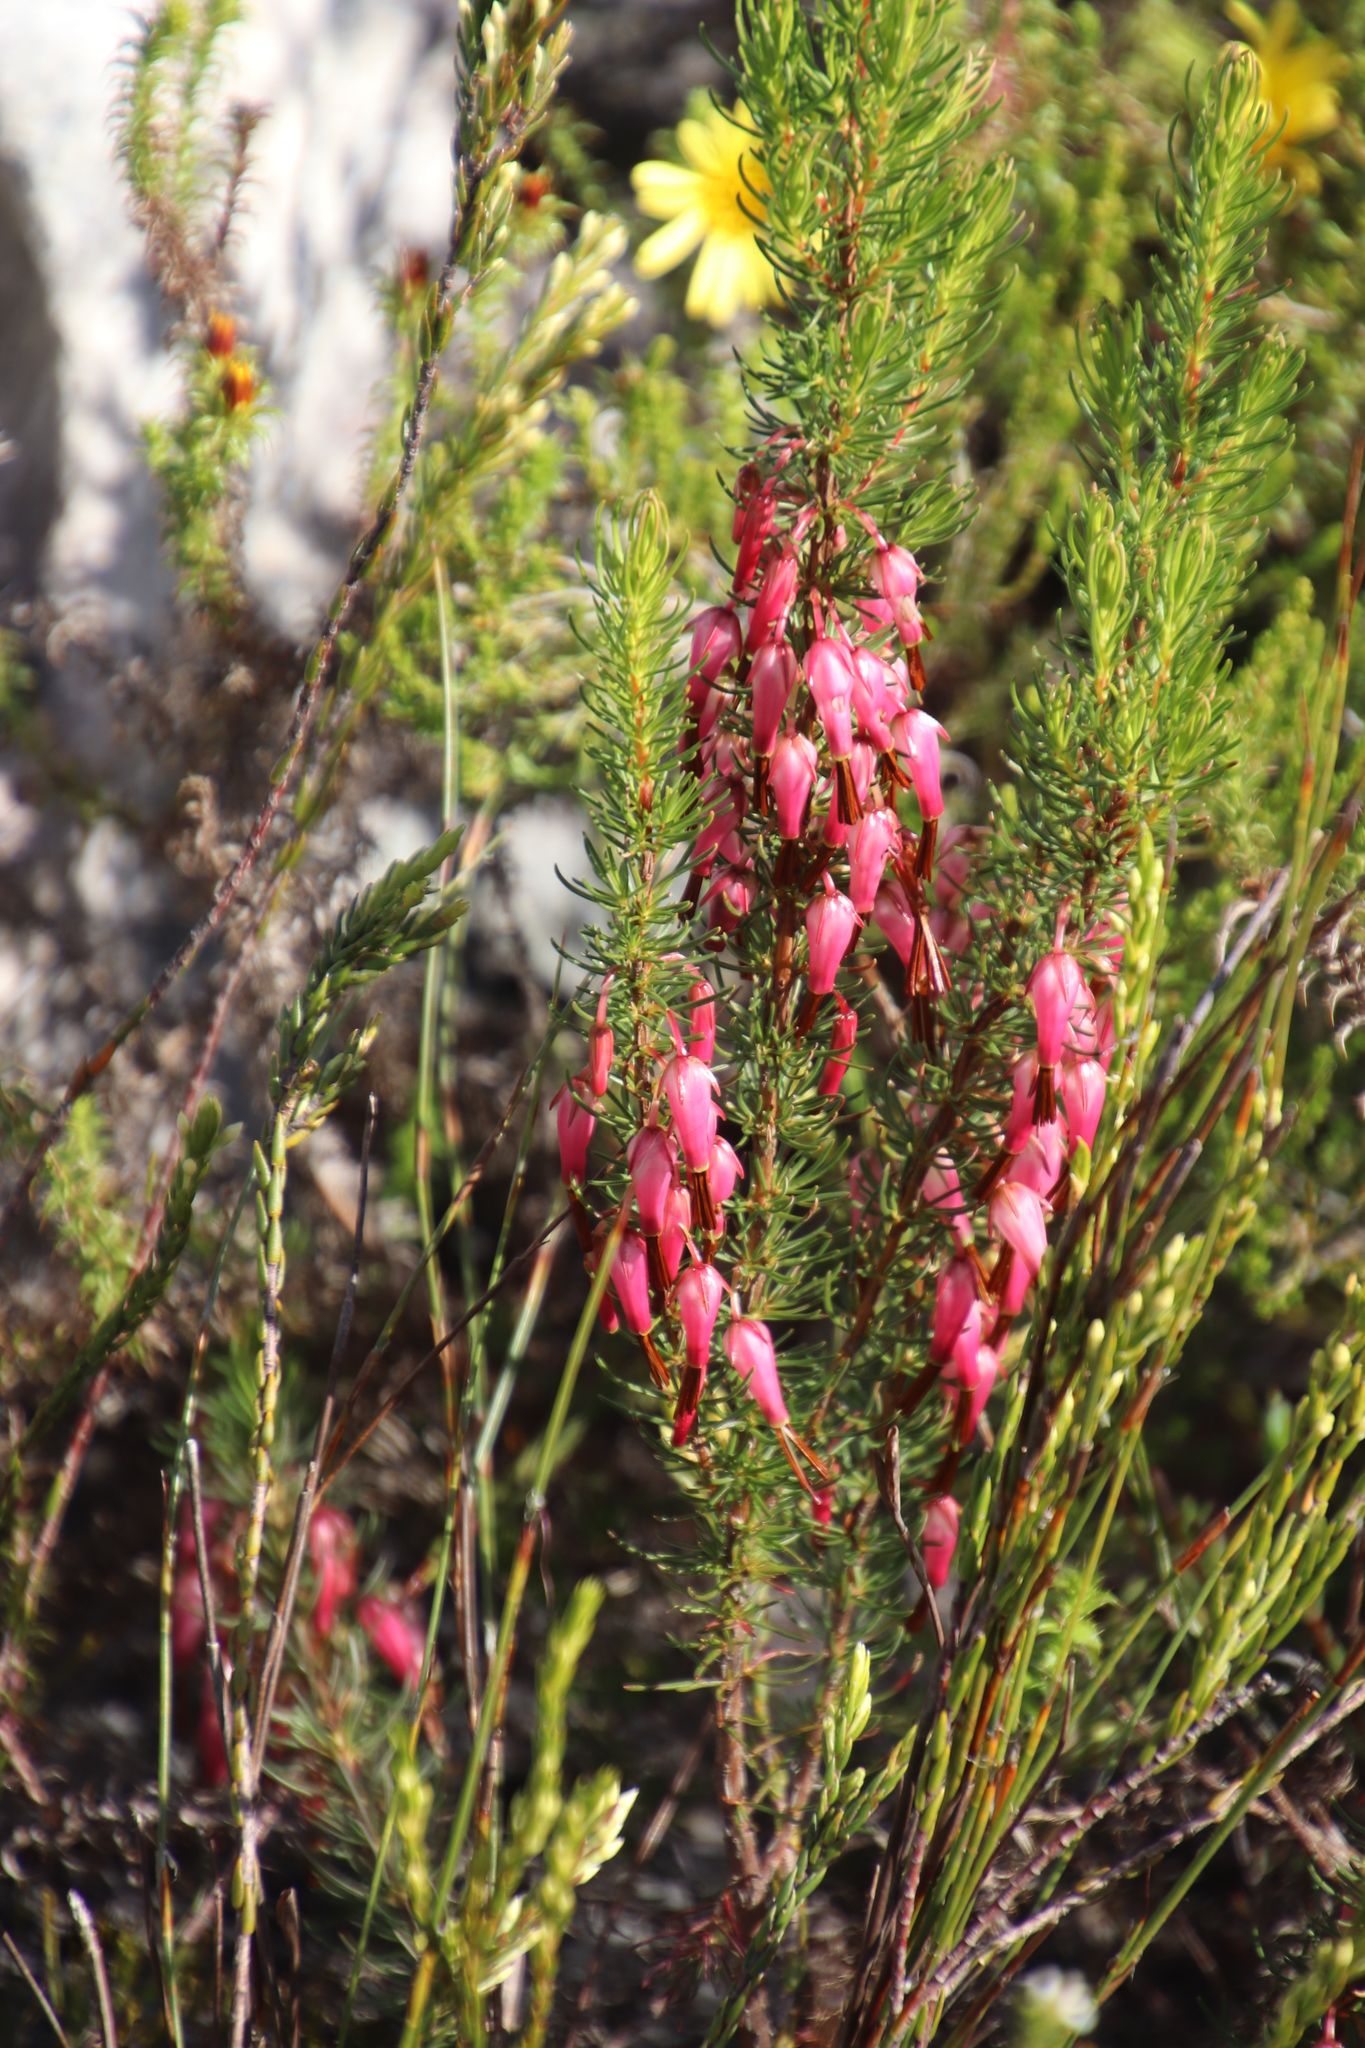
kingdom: Plantae
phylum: Tracheophyta
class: Magnoliopsida
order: Ericales
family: Ericaceae
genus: Erica
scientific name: Erica plukenetii
